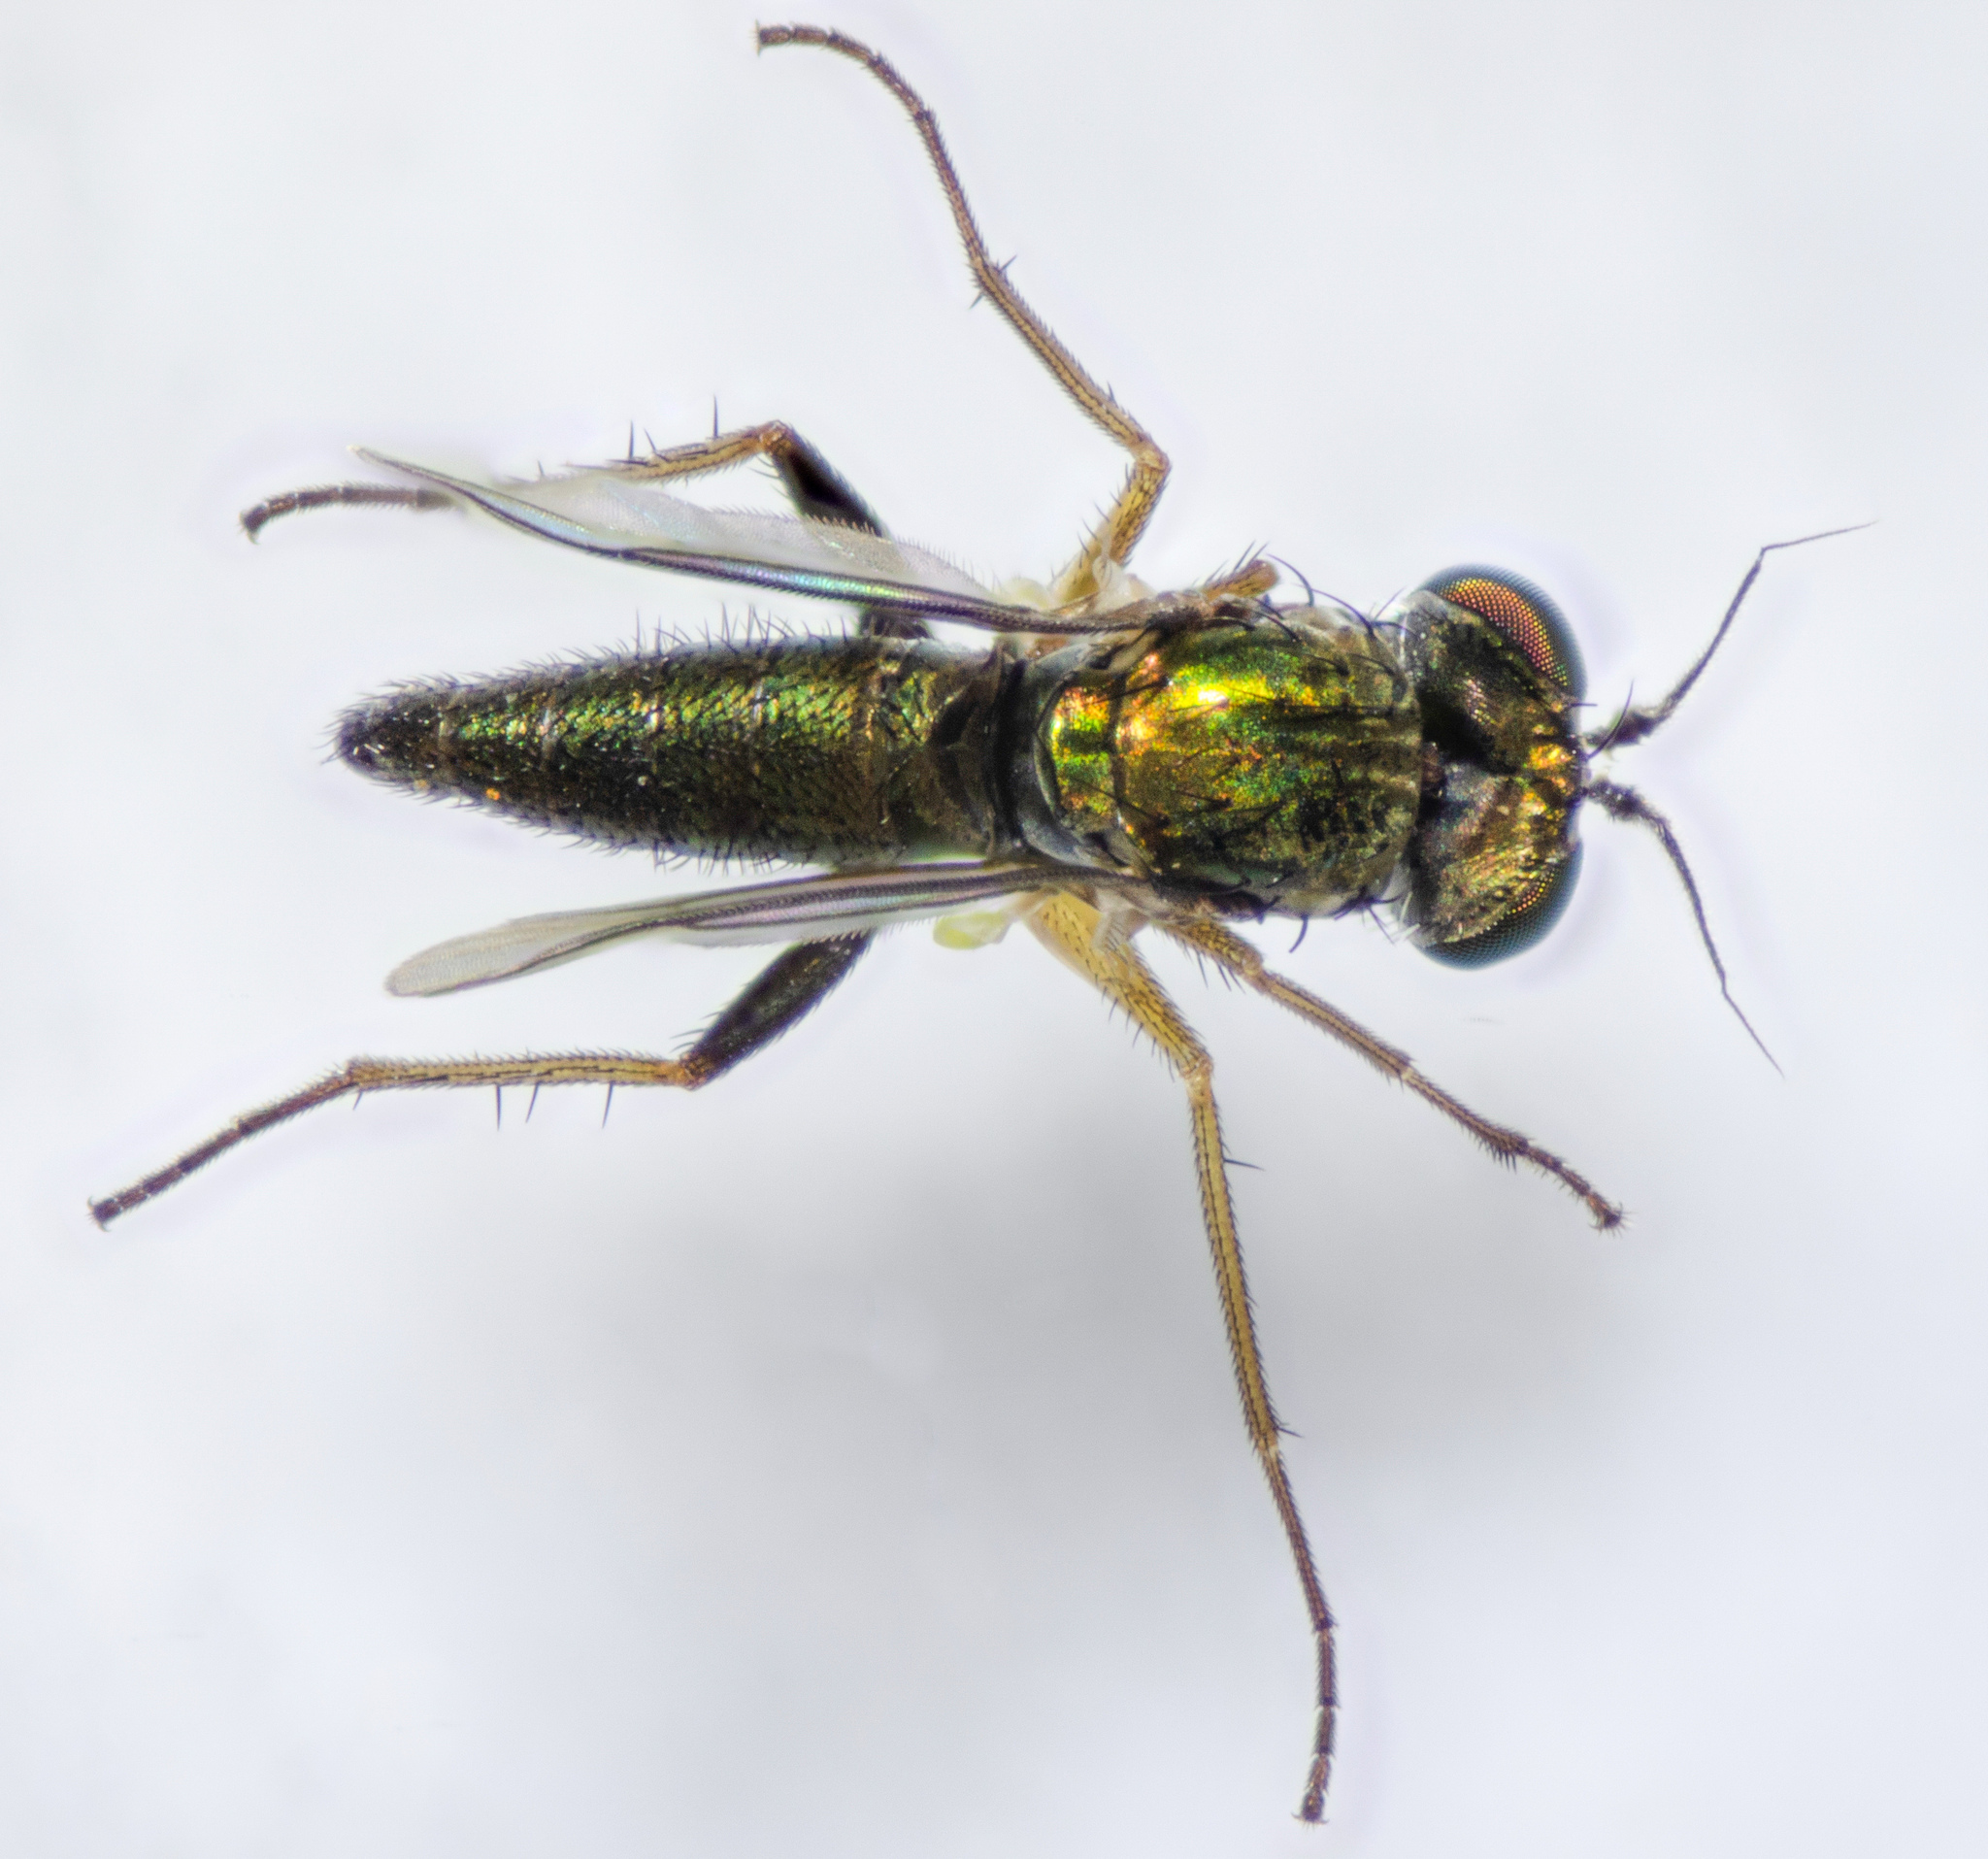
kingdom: Animalia
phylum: Arthropoda
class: Insecta
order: Diptera
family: Dolichopodidae
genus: Achradocera
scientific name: Achradocera arcuata
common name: Fly
